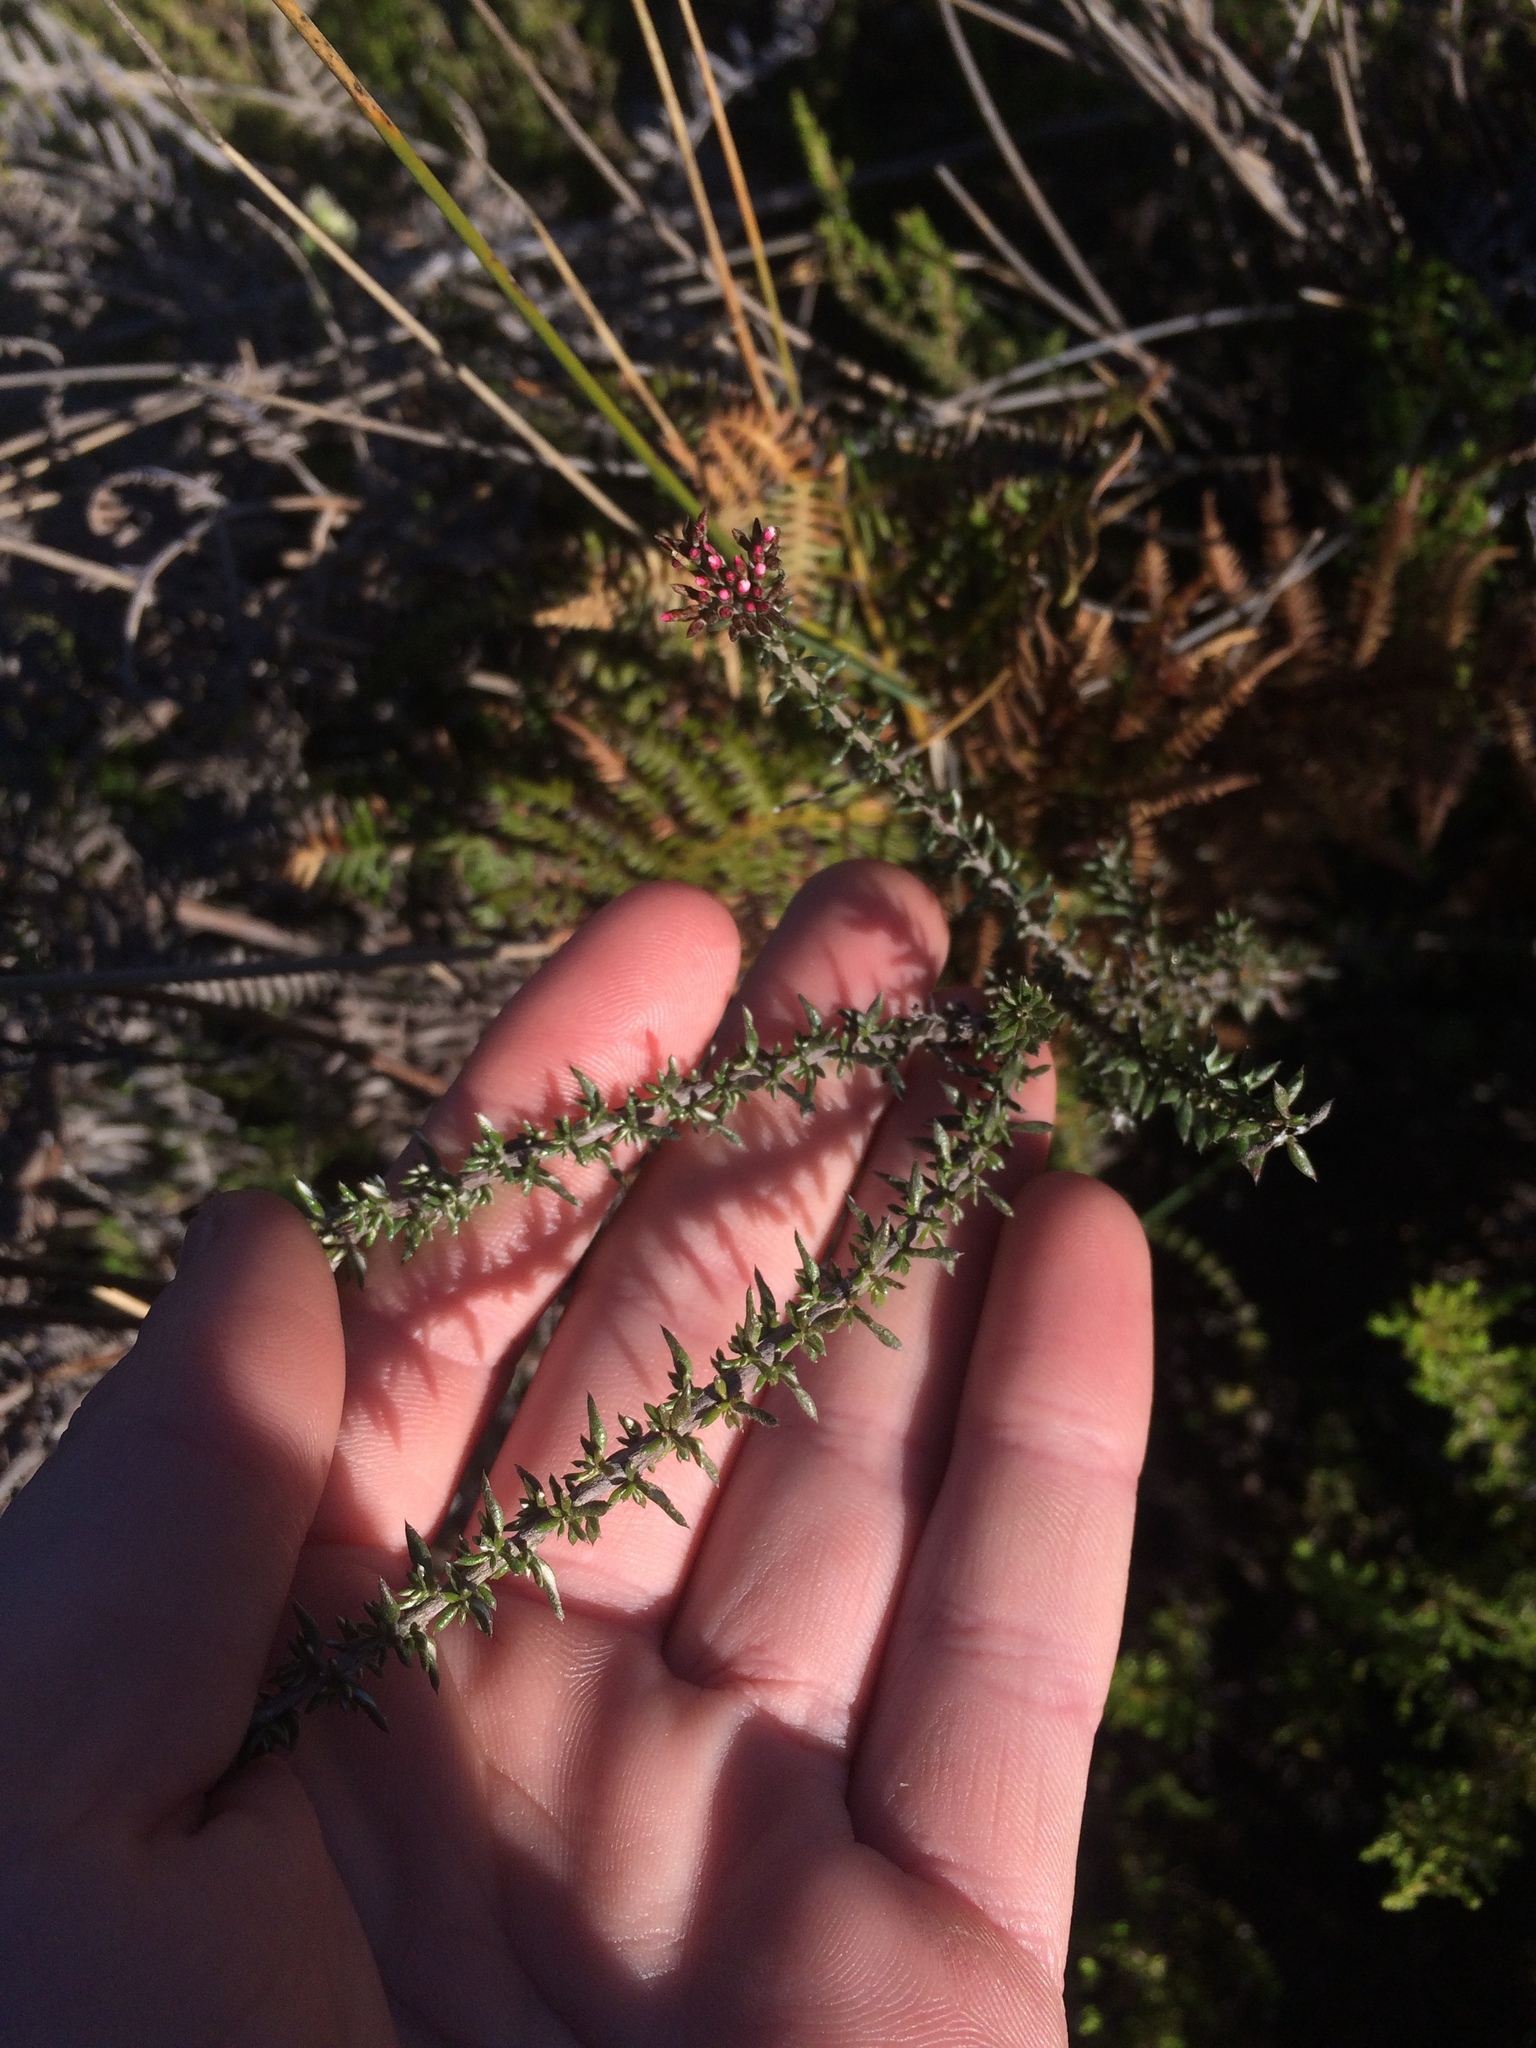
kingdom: Plantae
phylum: Tracheophyta
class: Magnoliopsida
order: Asterales
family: Asteraceae
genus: Metalasia
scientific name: Metalasia densa
